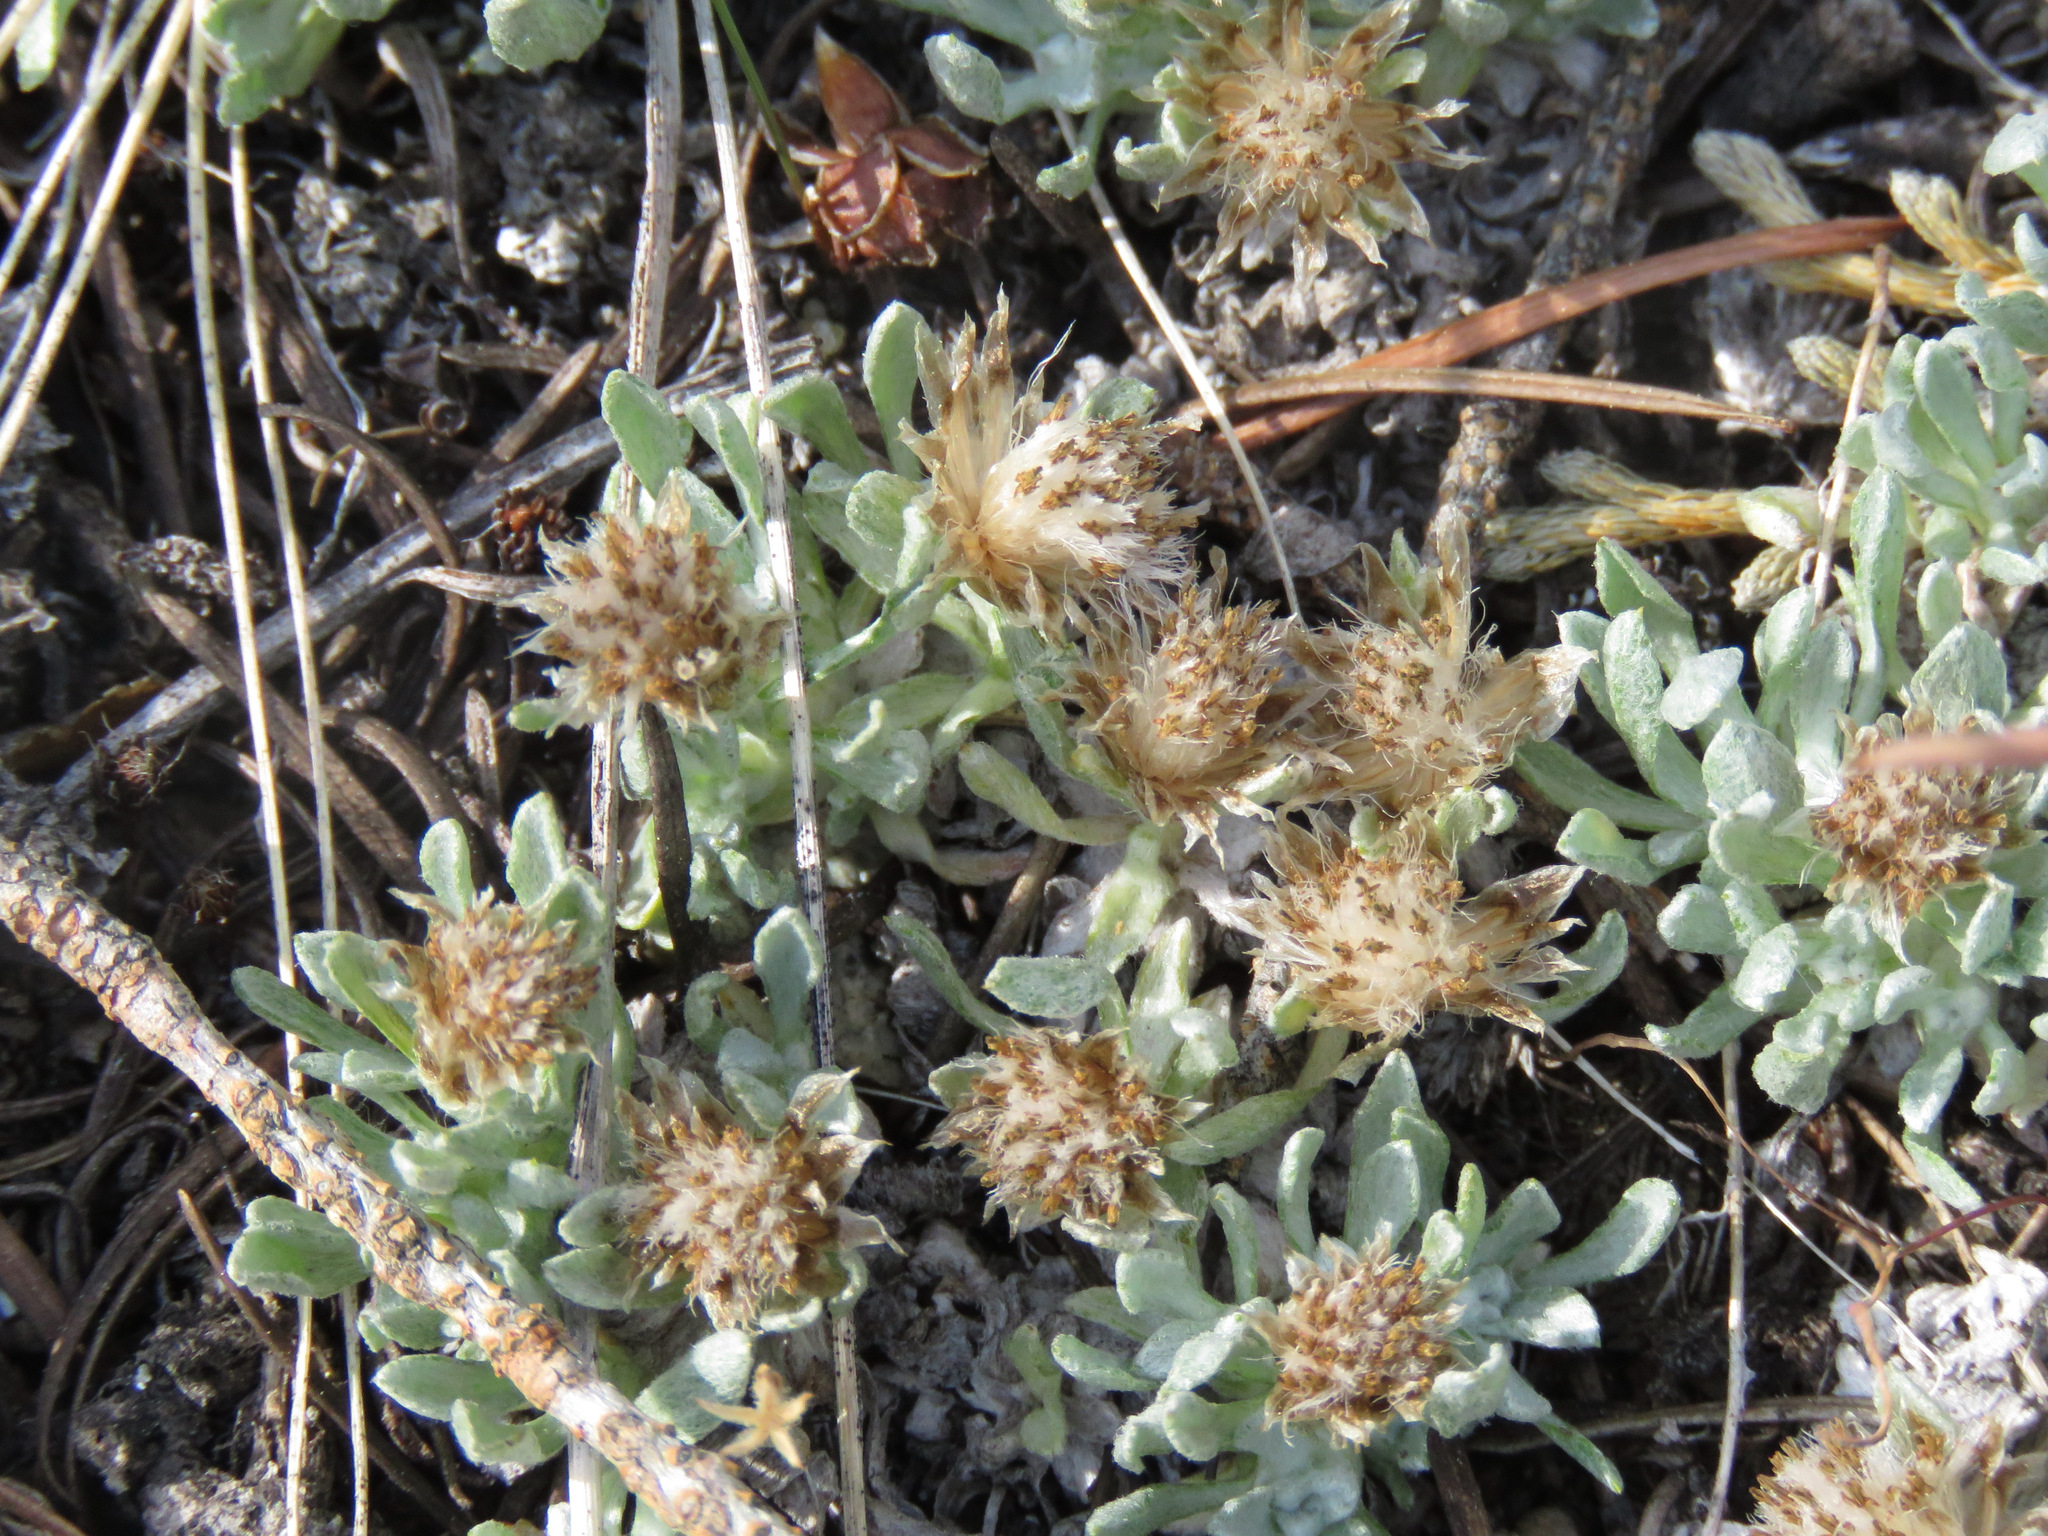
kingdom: Plantae
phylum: Tracheophyta
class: Magnoliopsida
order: Asterales
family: Asteraceae
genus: Antennaria
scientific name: Antennaria dimorpha
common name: Cushion pussytoes
